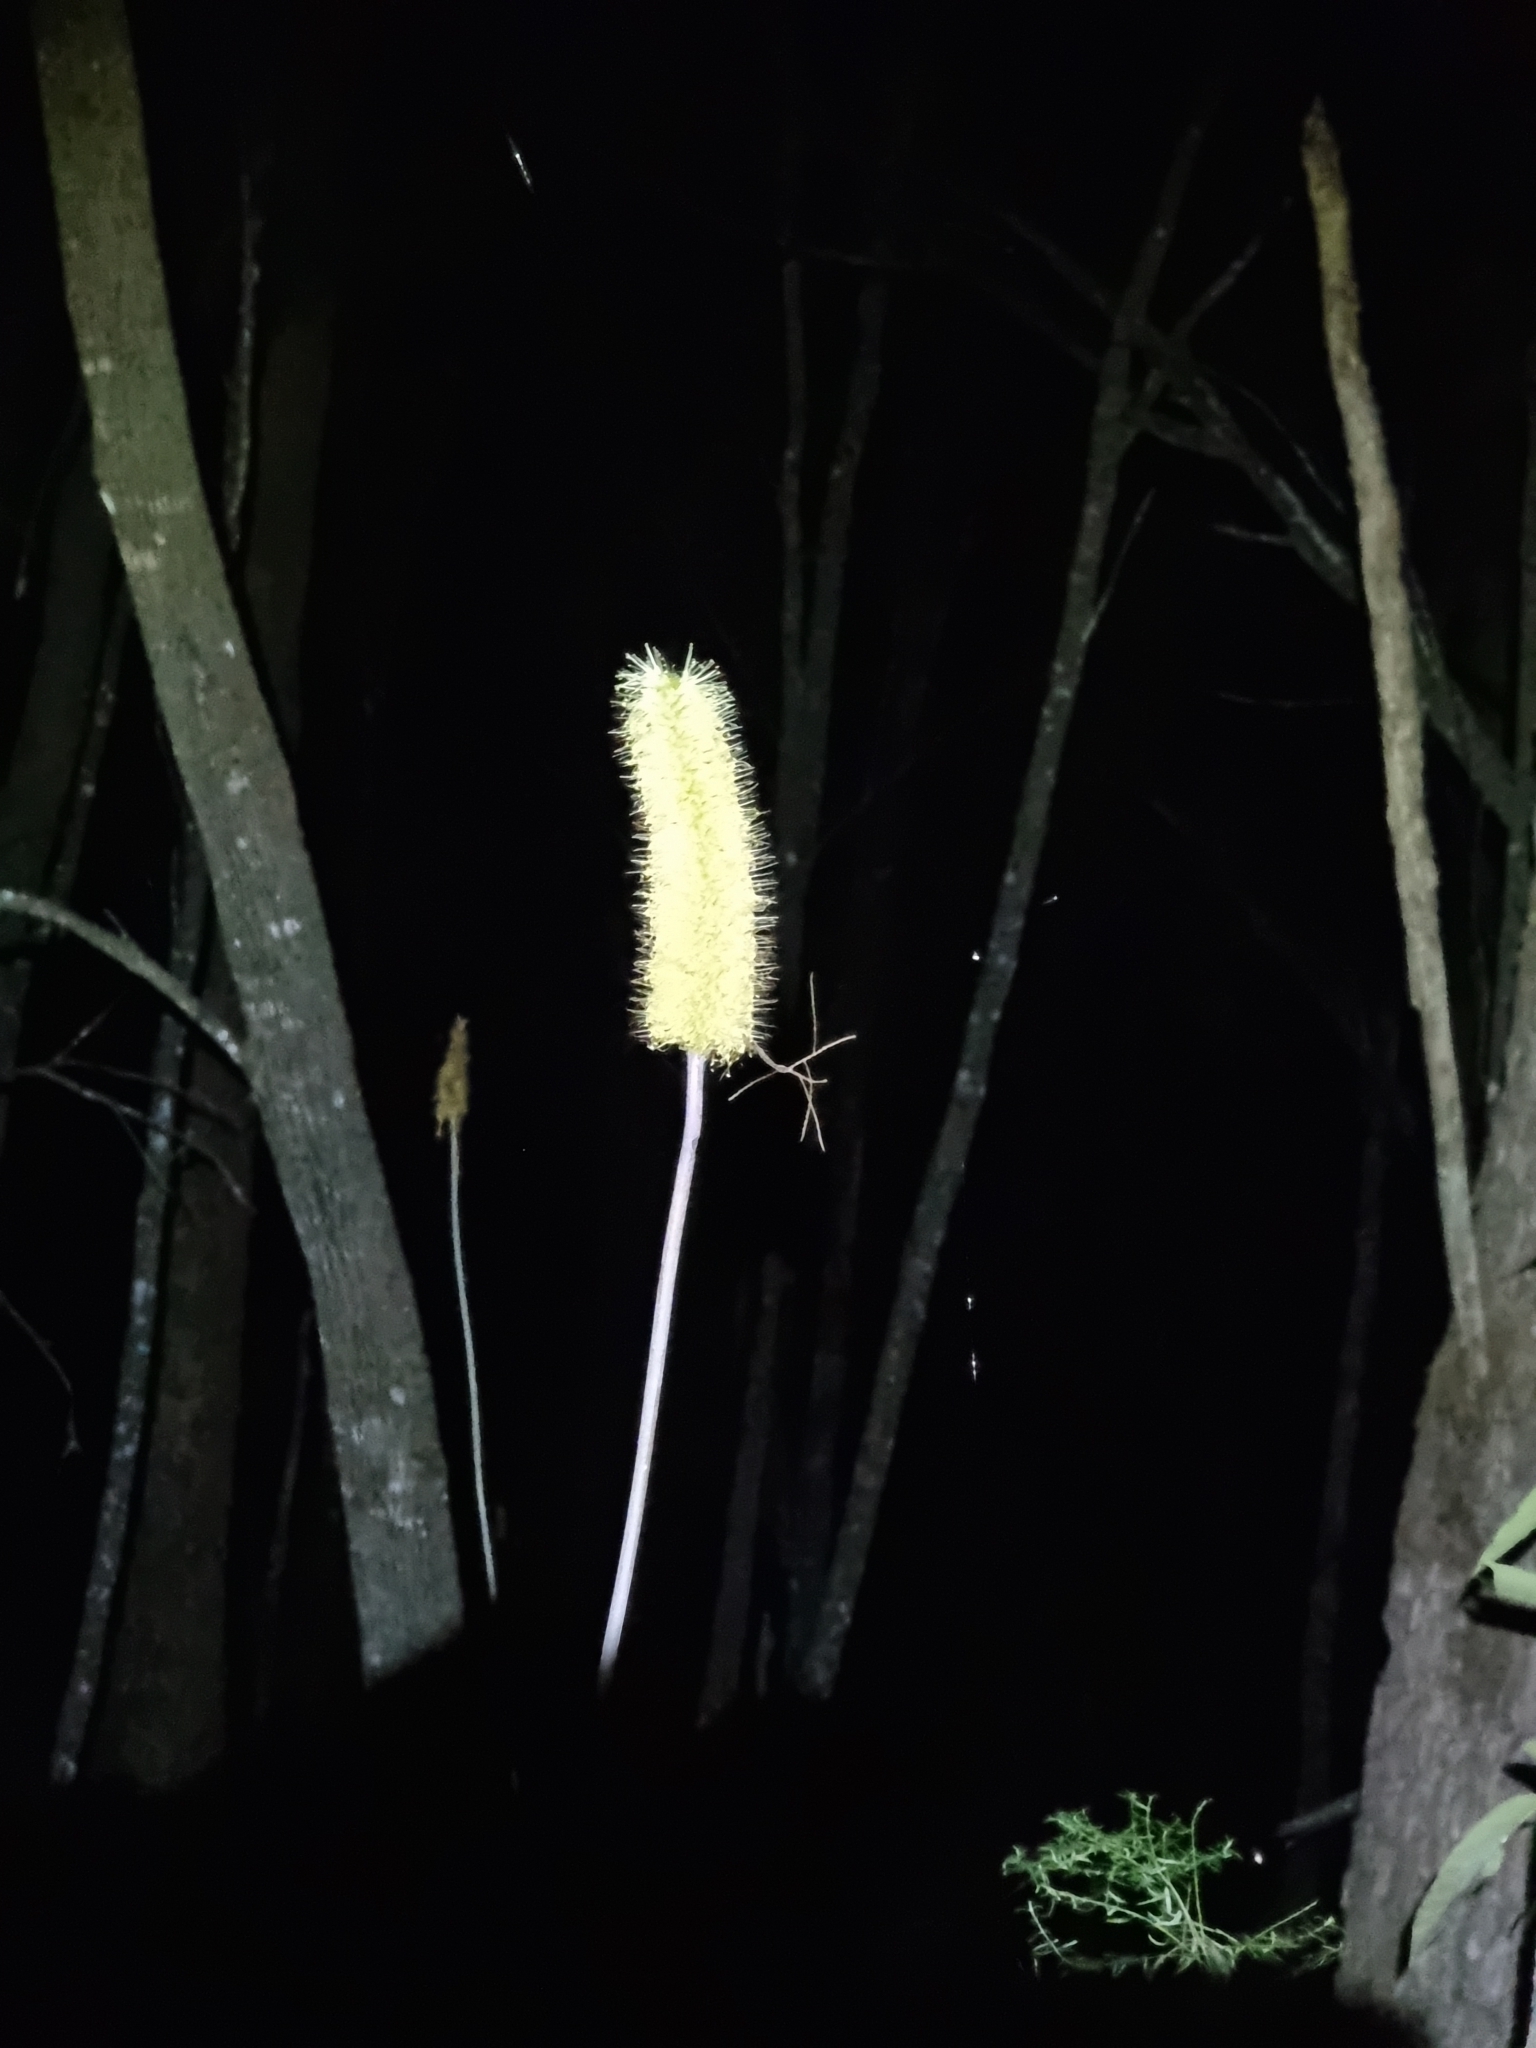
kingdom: Plantae
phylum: Tracheophyta
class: Liliopsida
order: Asparagales
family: Asphodelaceae
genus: Xanthorrhoea
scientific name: Xanthorrhoea macronema
